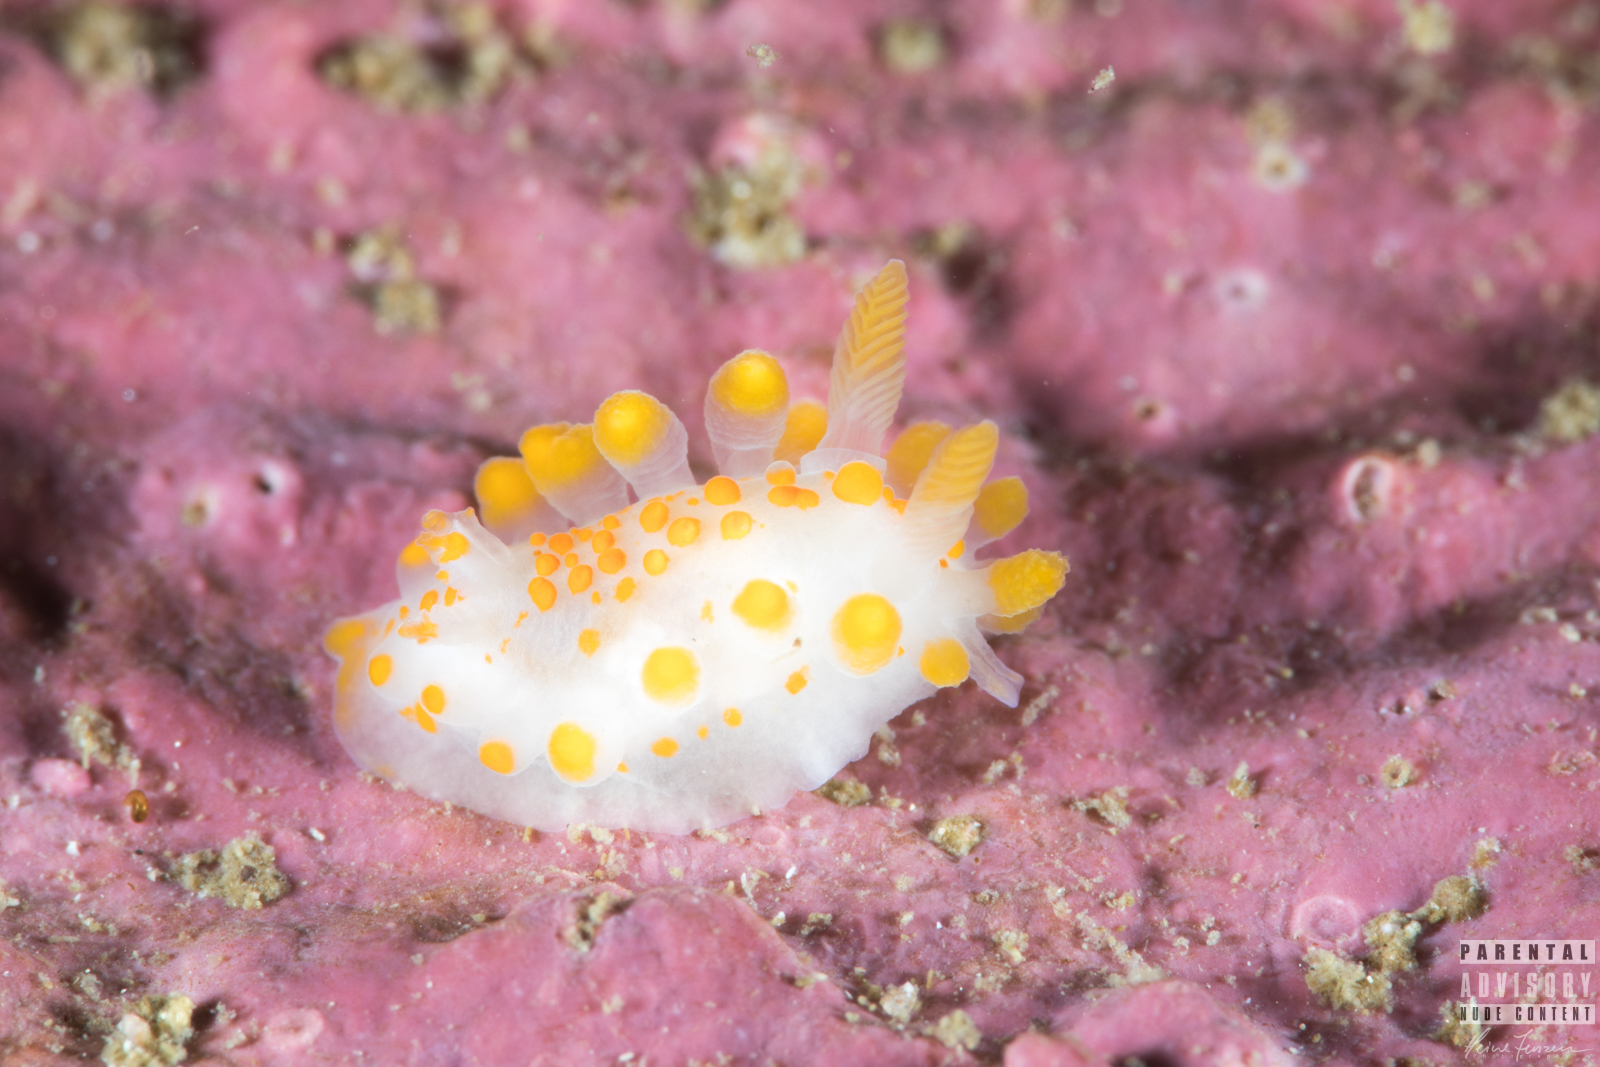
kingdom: Animalia
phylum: Mollusca
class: Gastropoda
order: Nudibranchia
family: Polyceridae
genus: Limacia
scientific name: Limacia clavigera
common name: Orange-clubbed sea slug
